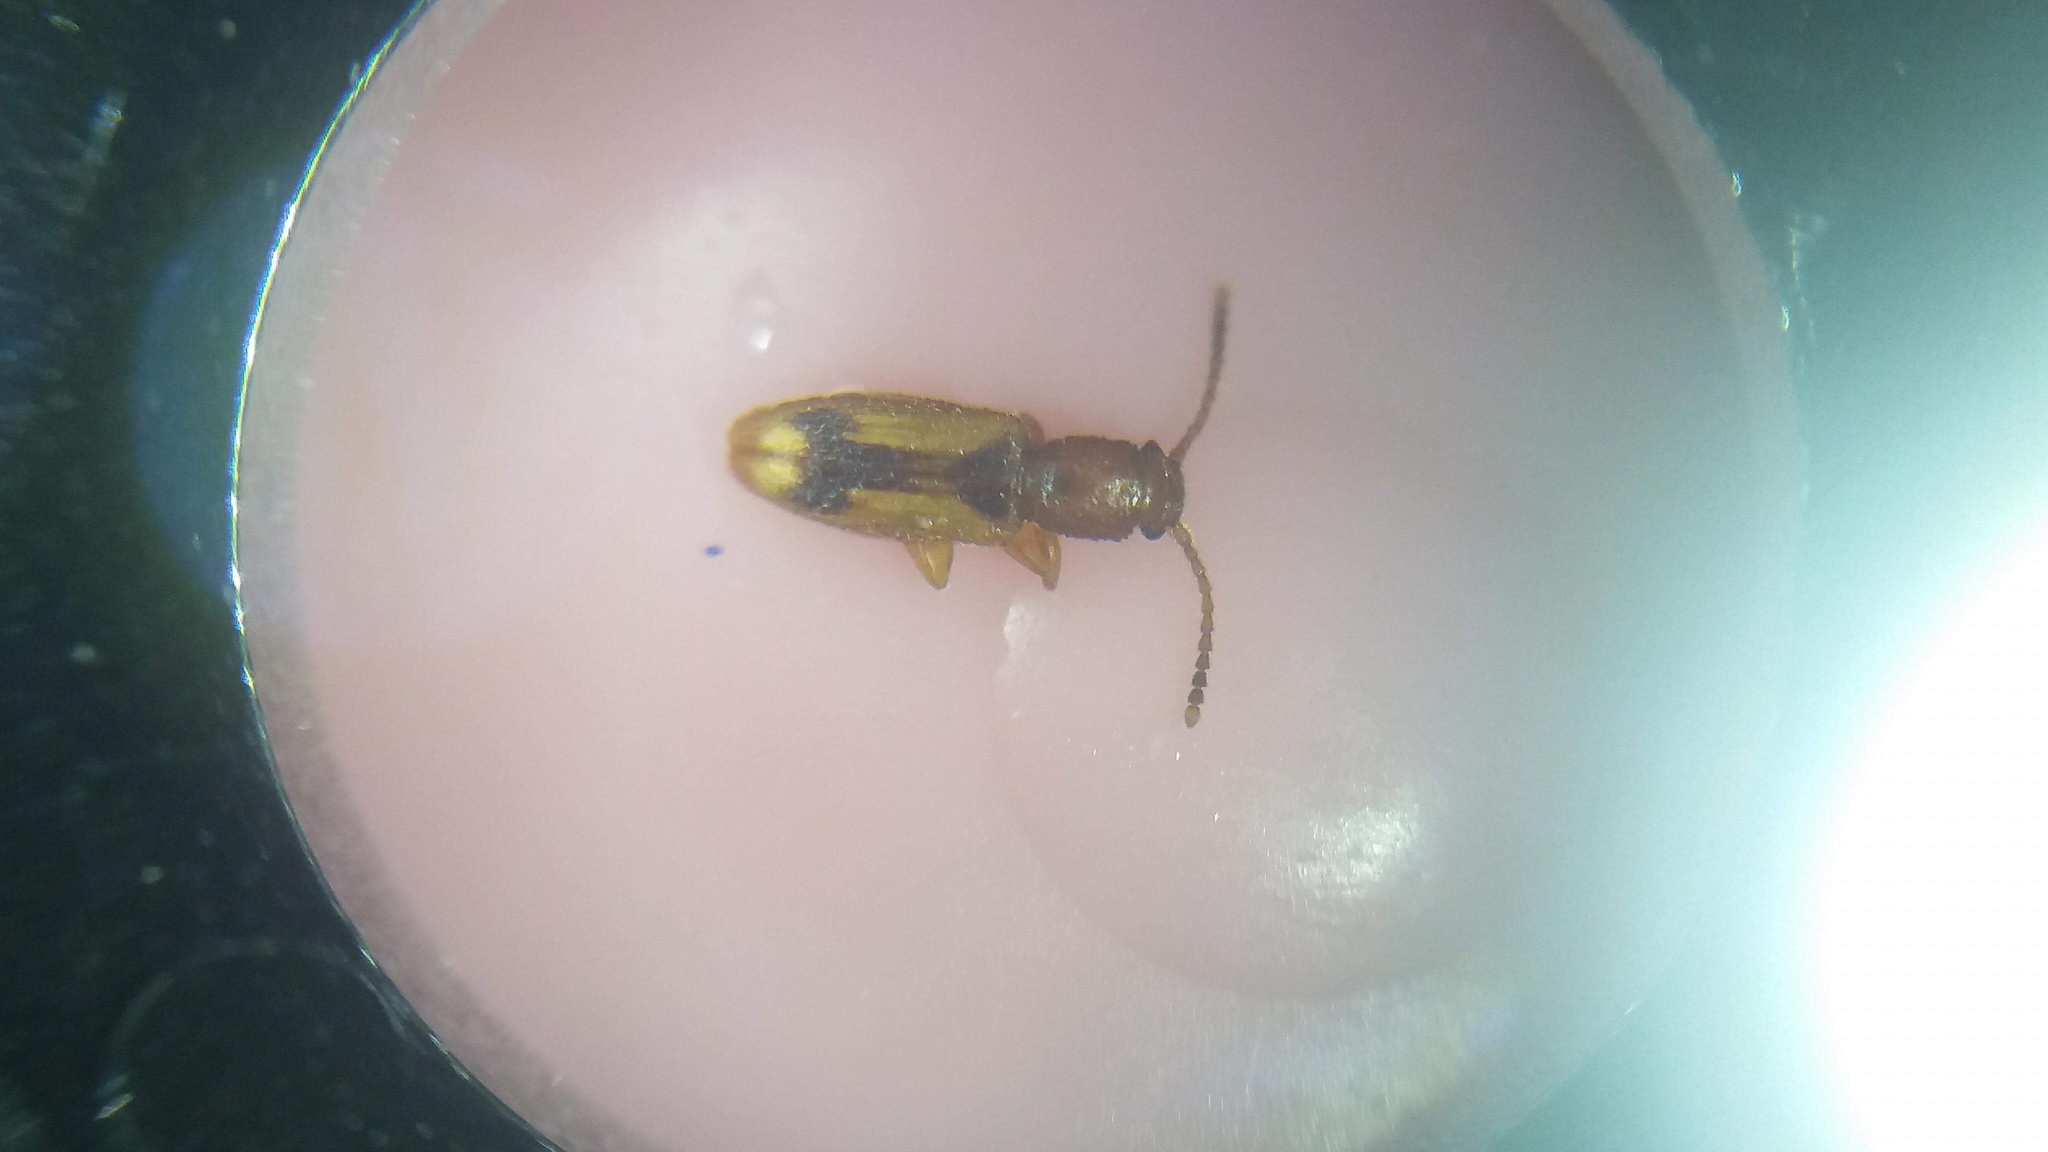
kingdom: Animalia
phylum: Arthropoda
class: Insecta
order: Coleoptera
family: Silvanidae
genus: Cryptamorpha
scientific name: Cryptamorpha desjardinsi
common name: Cryptamorpha
